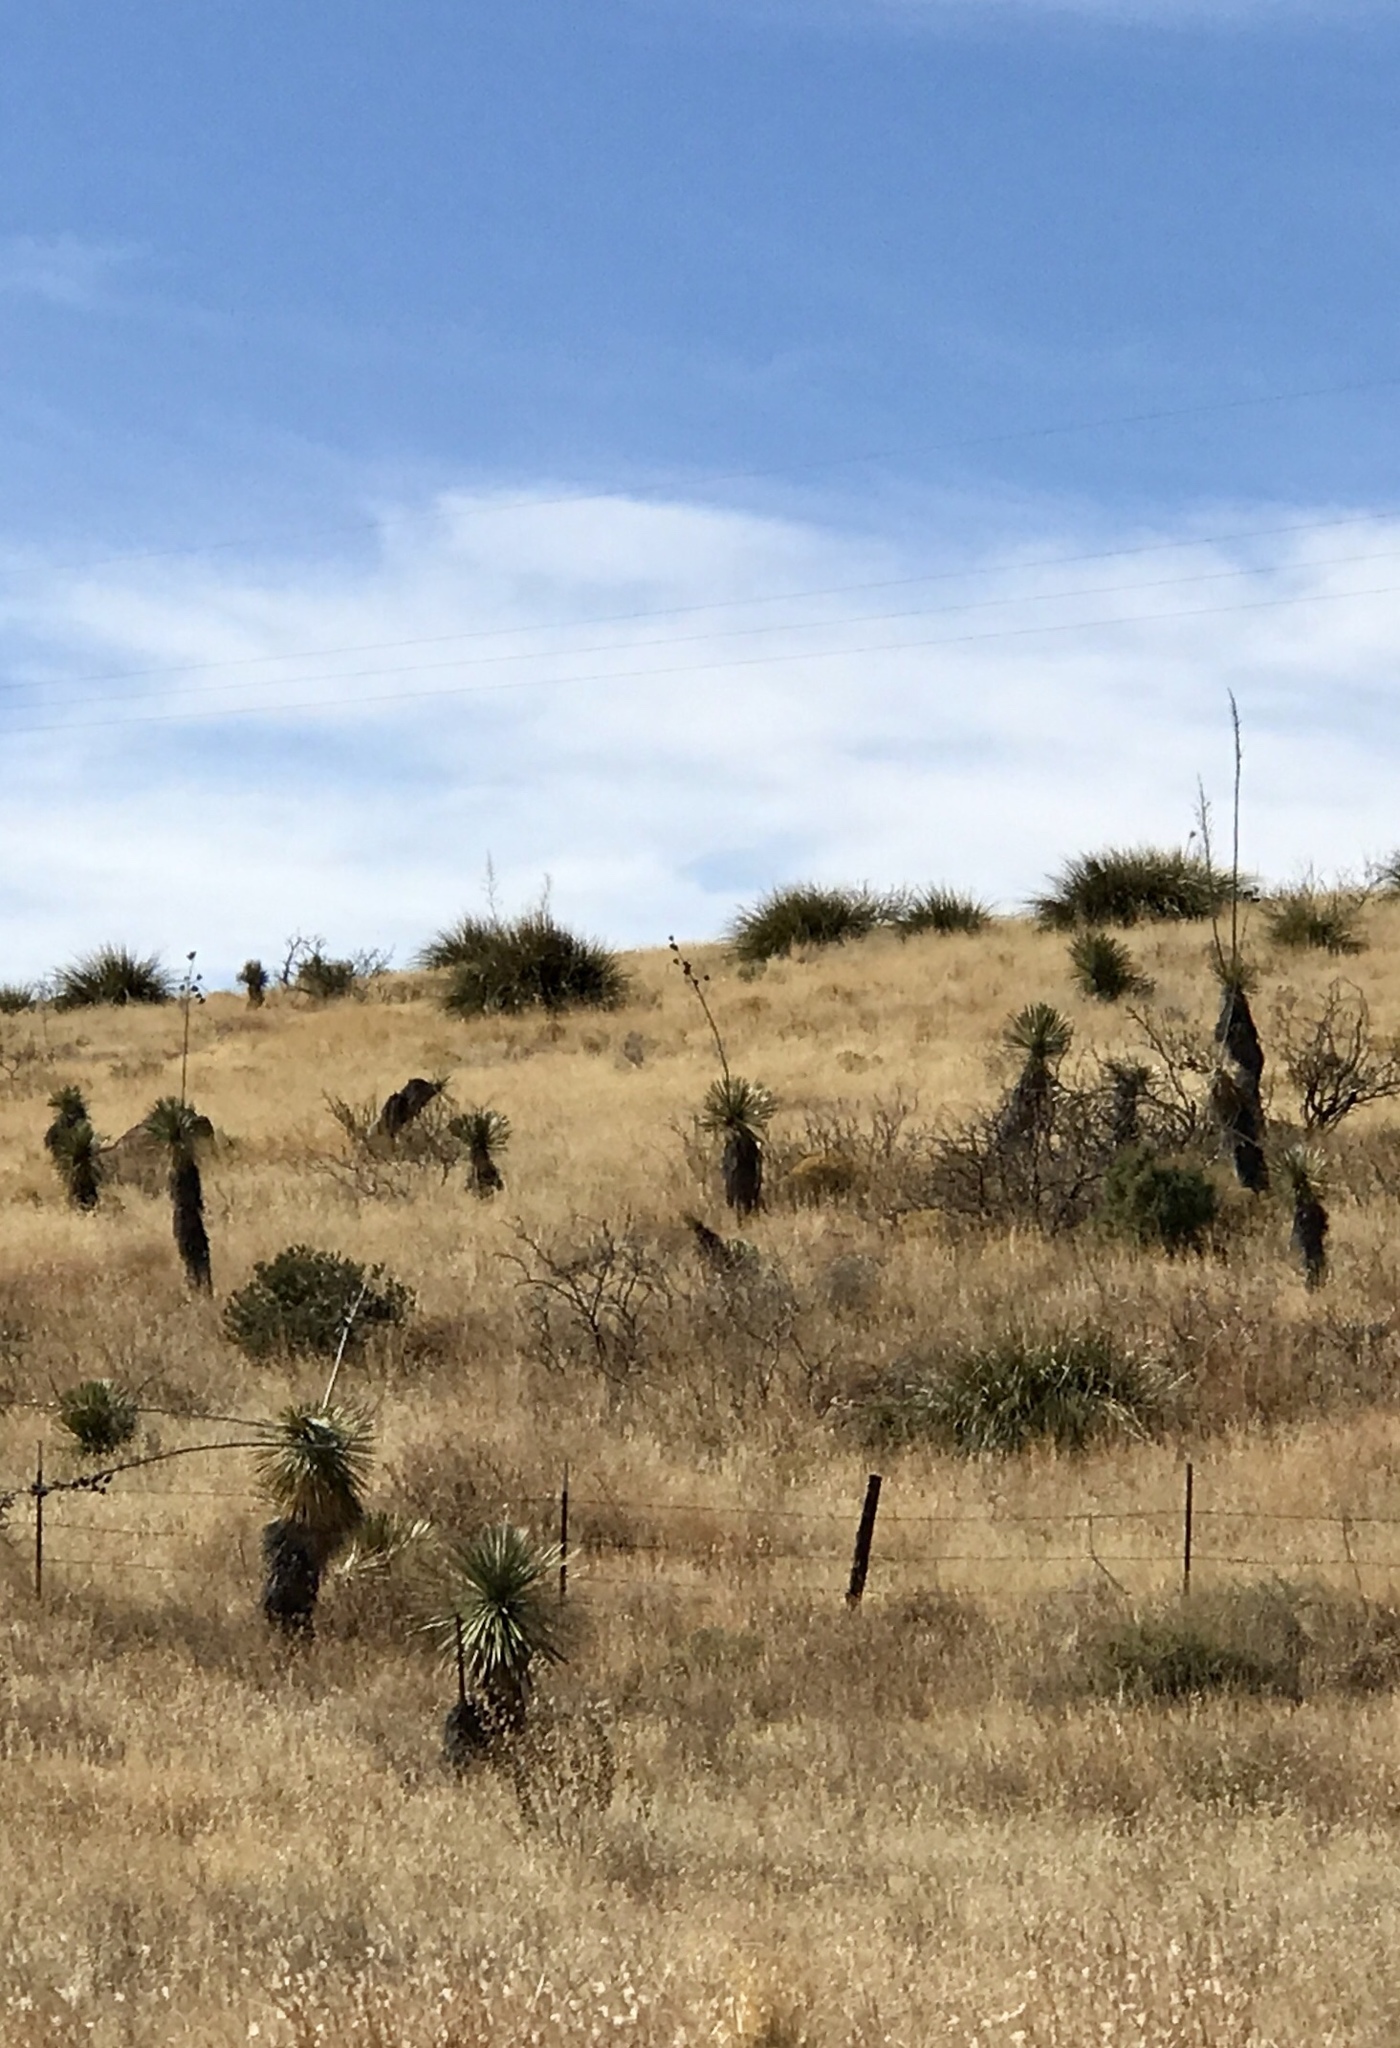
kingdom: Plantae
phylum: Tracheophyta
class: Liliopsida
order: Asparagales
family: Asparagaceae
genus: Yucca
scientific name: Yucca elata
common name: Palmella
